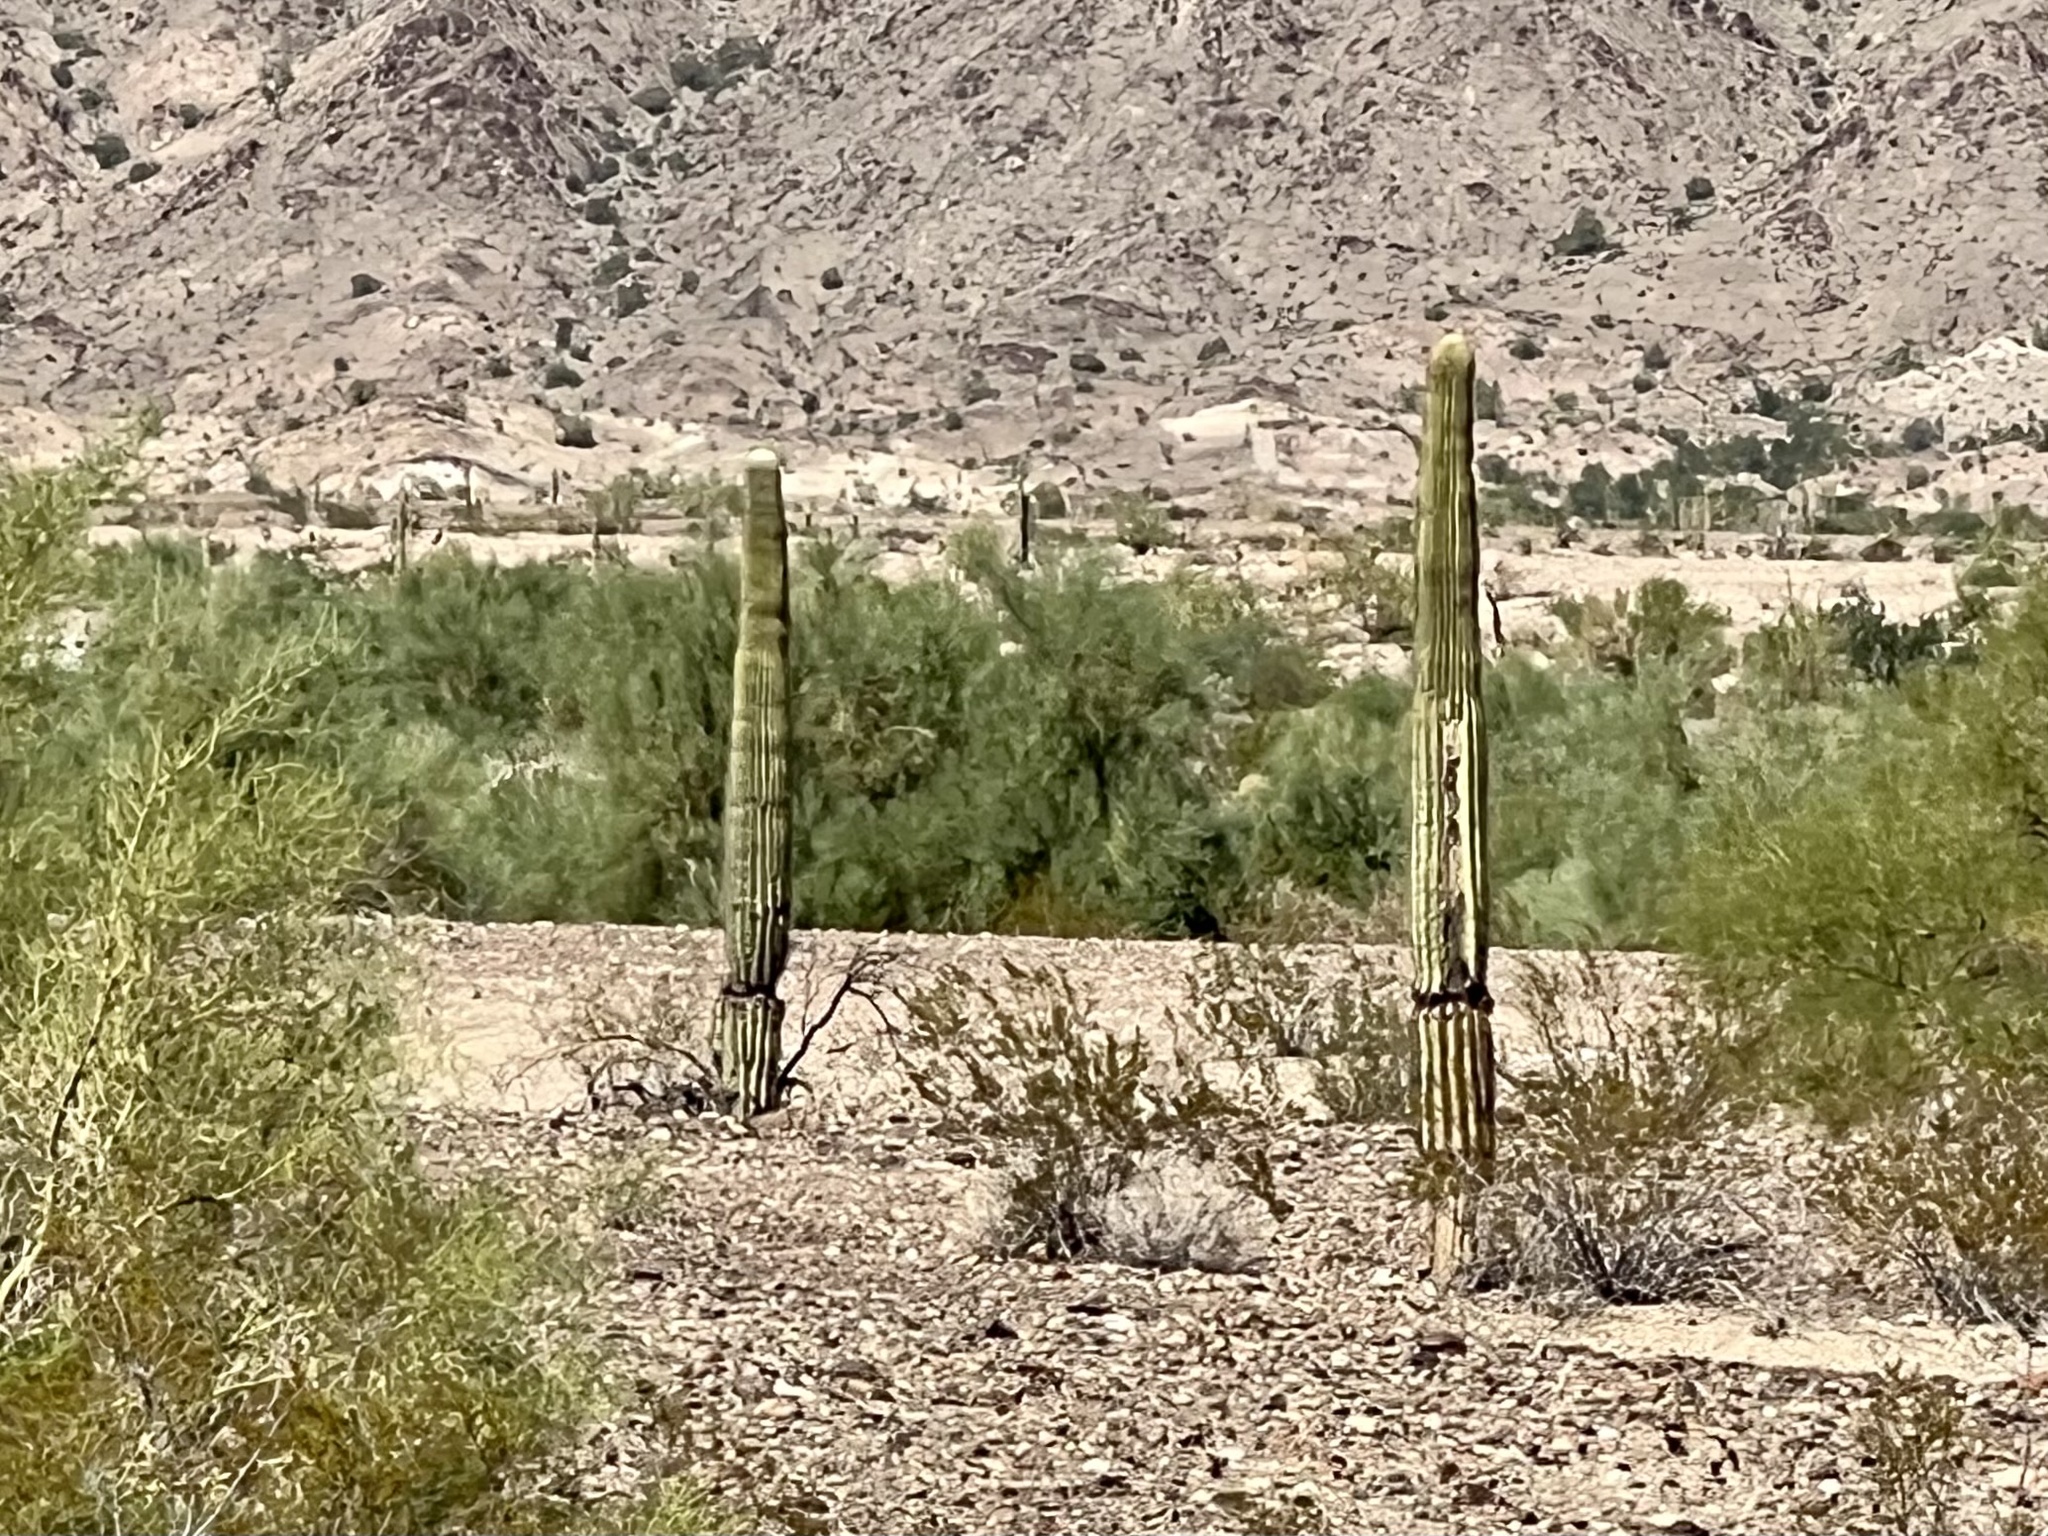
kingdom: Plantae
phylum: Tracheophyta
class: Magnoliopsida
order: Caryophyllales
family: Cactaceae
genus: Carnegiea
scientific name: Carnegiea gigantea
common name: Saguaro
